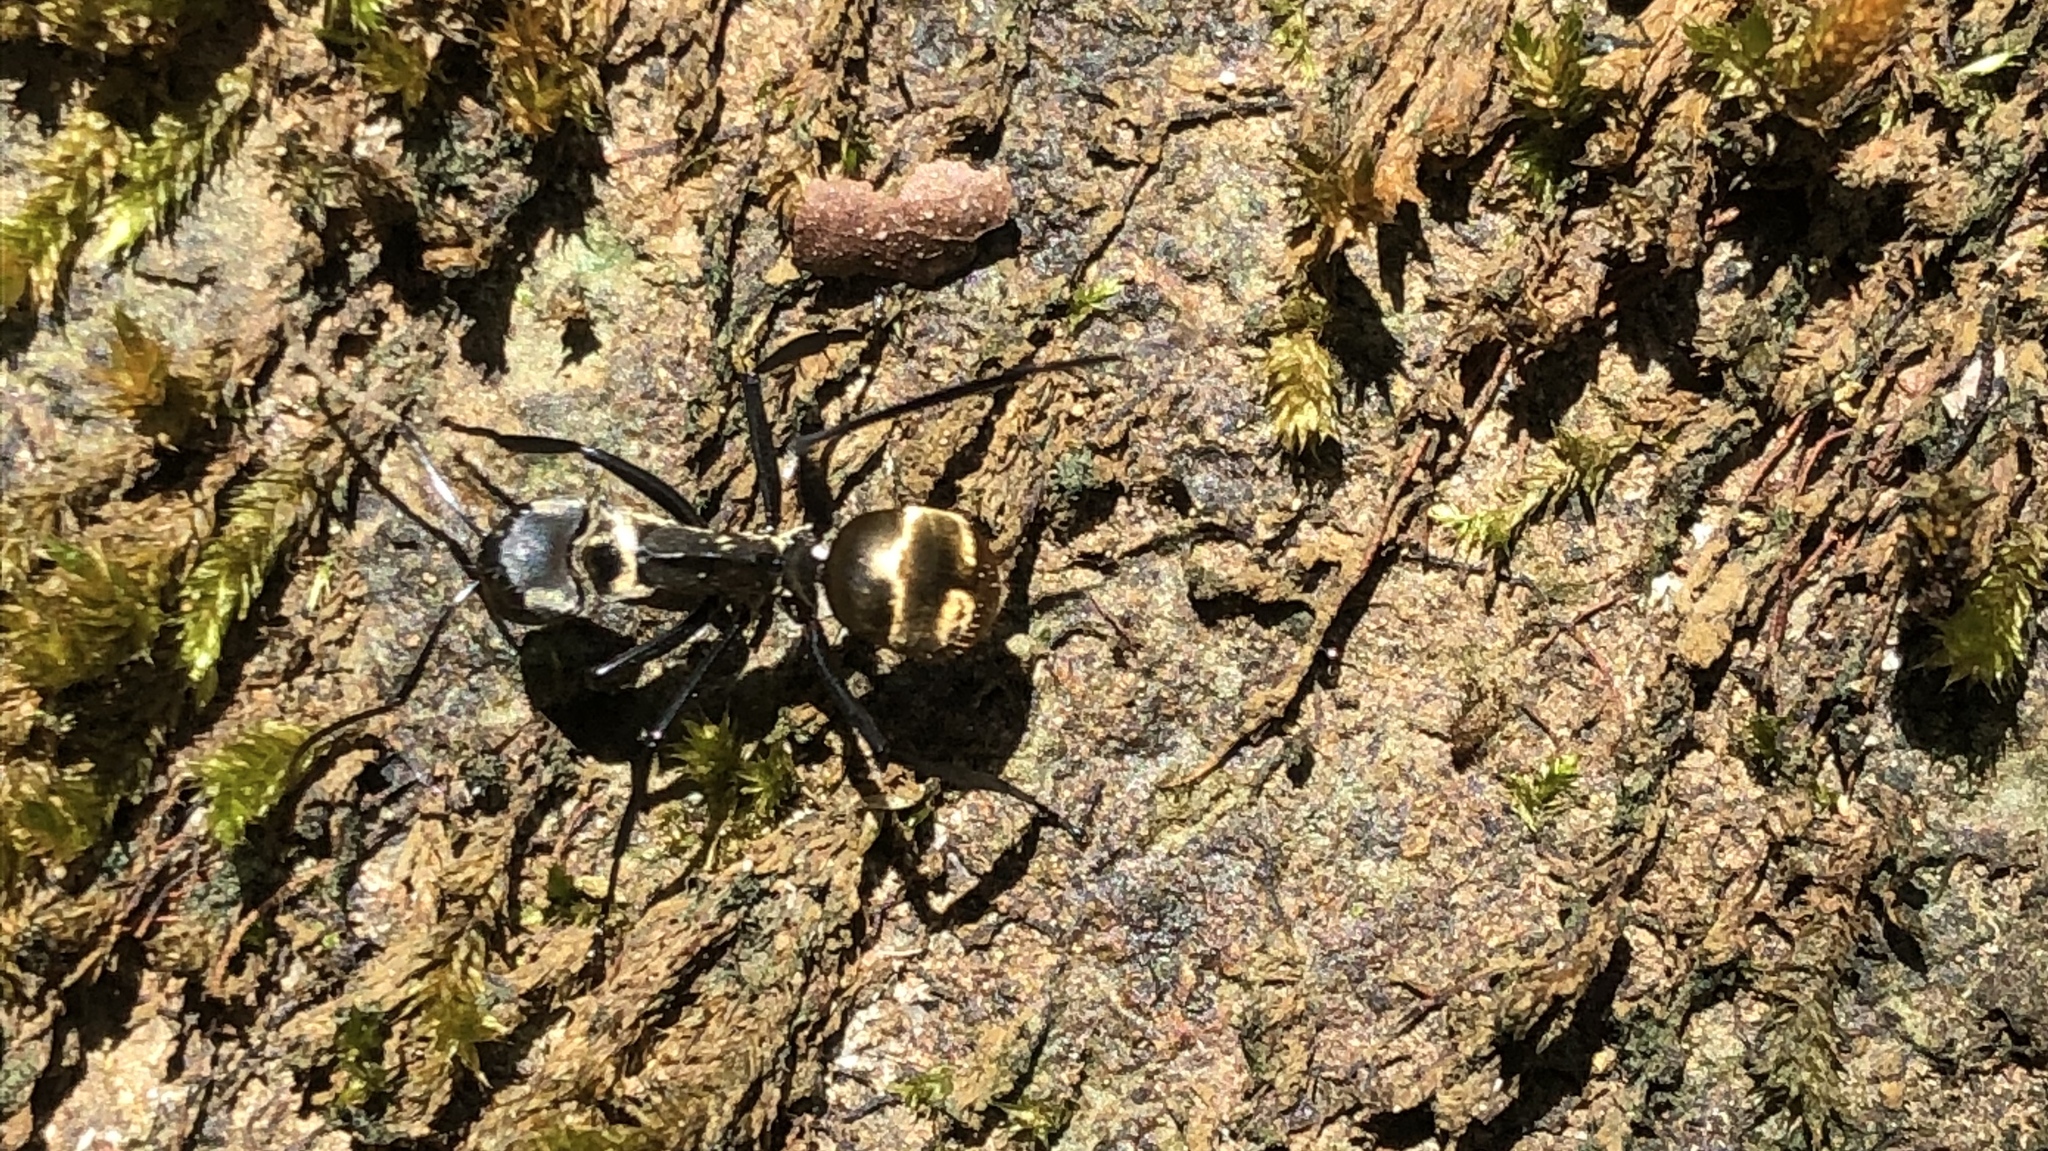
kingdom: Animalia
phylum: Arthropoda
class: Insecta
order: Hymenoptera
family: Formicidae
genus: Camponotus
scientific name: Camponotus sericeiventris
